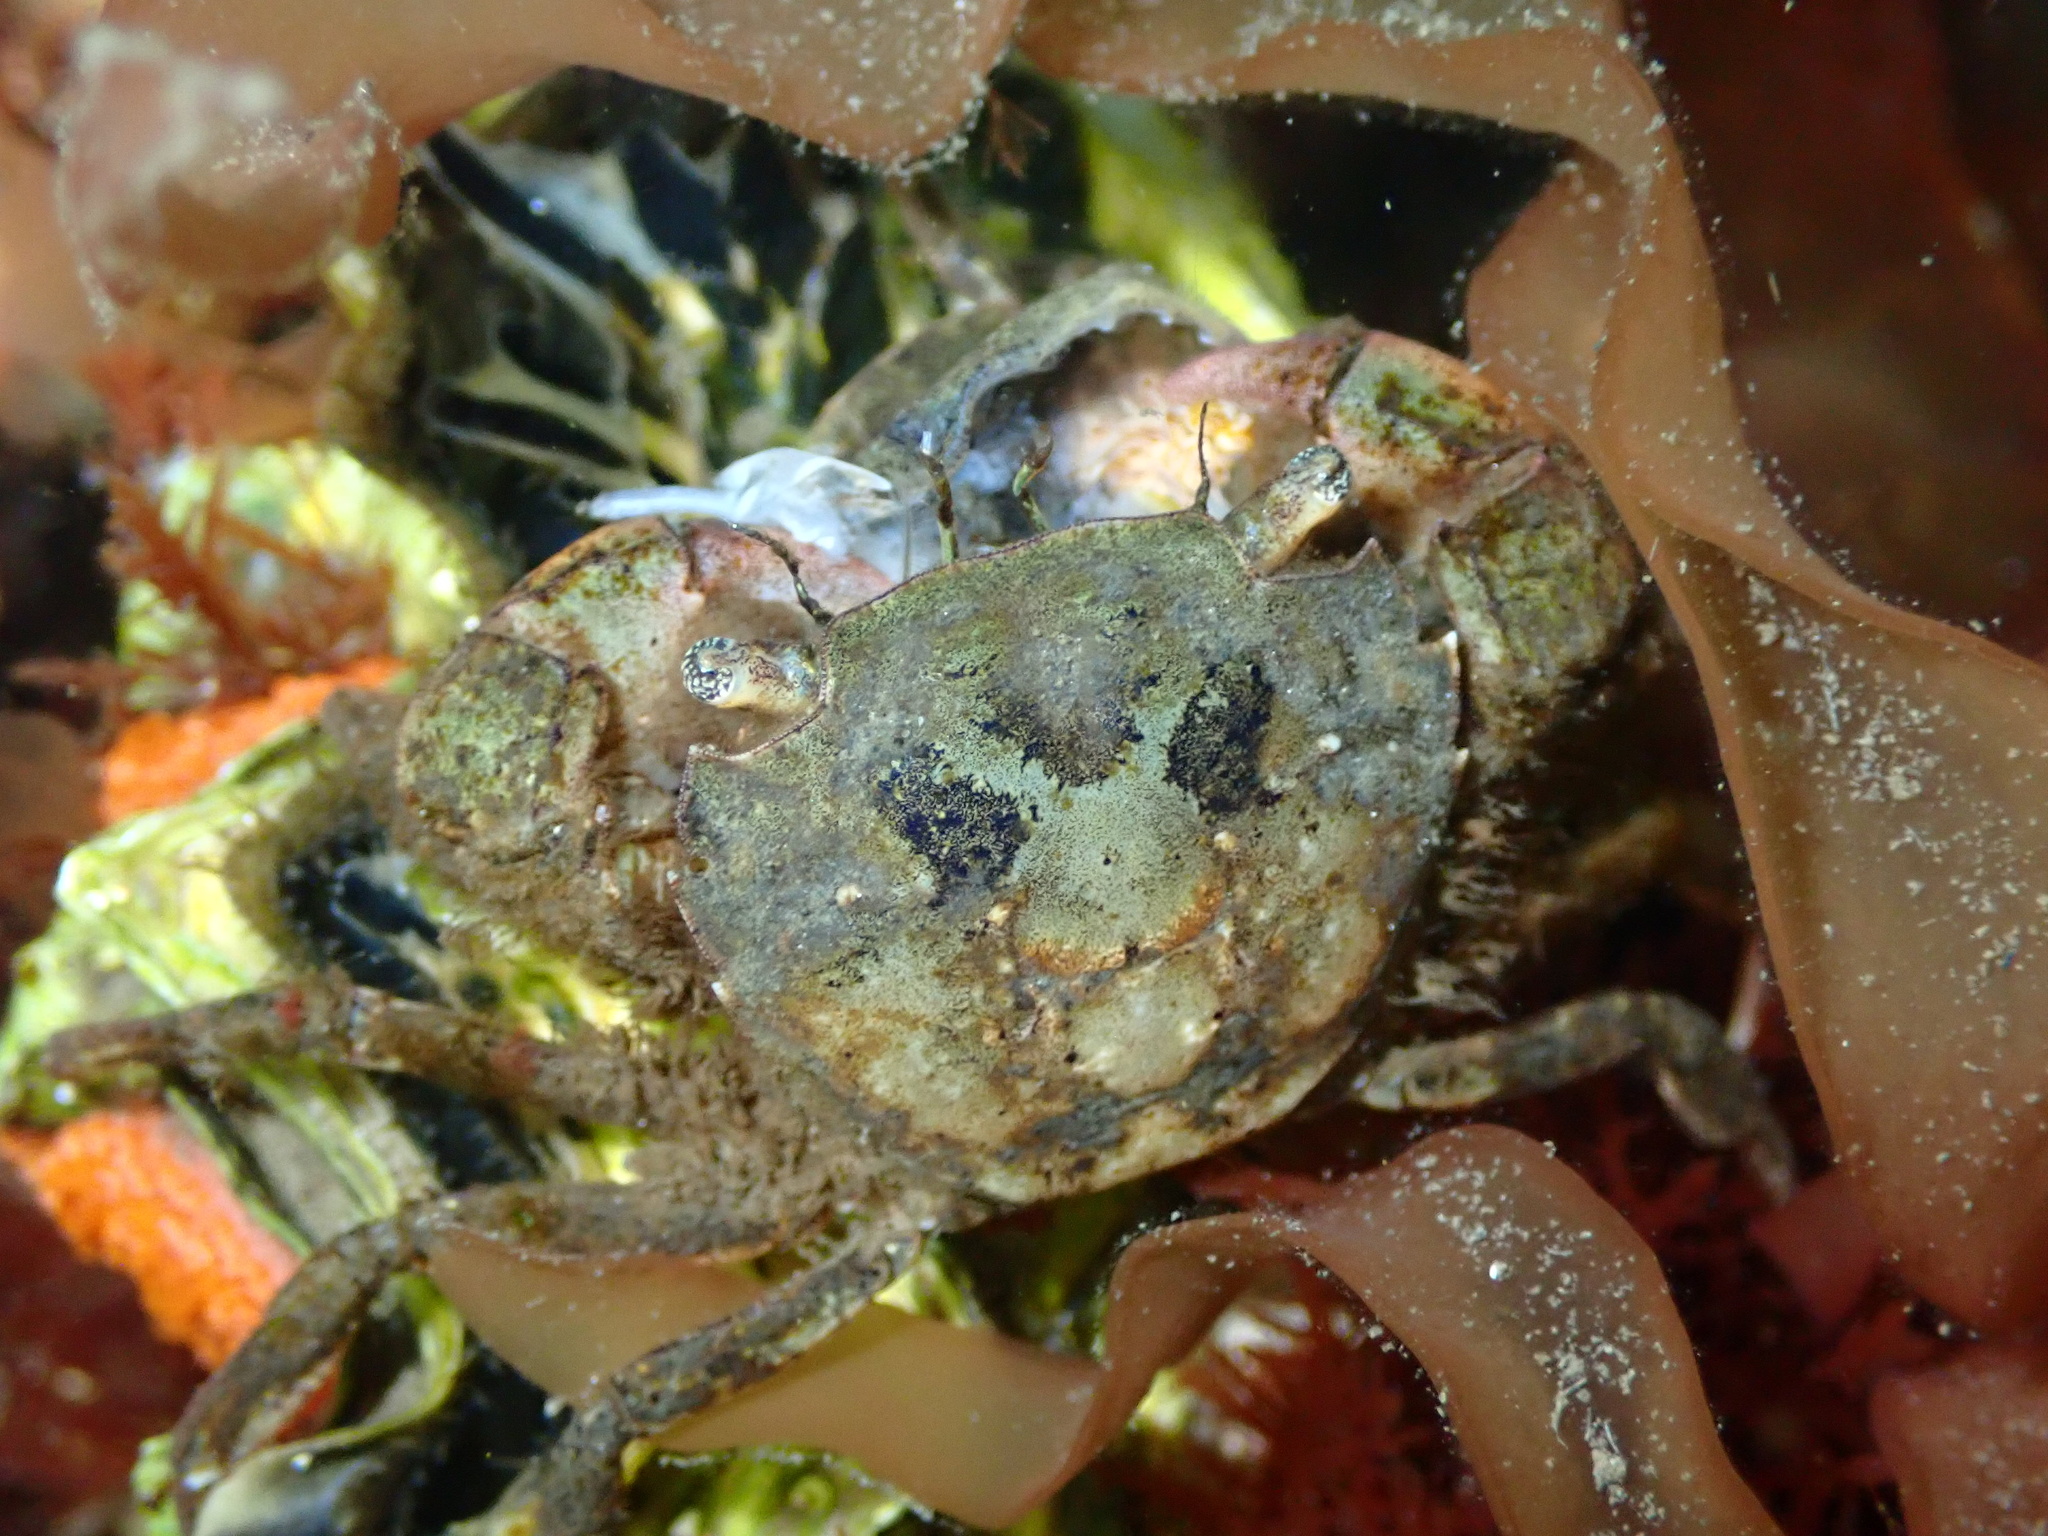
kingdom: Animalia
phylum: Arthropoda
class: Malacostraca
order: Decapoda
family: Varunidae
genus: Hemigrapsus
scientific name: Hemigrapsus takanoi
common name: Asian brush crab
